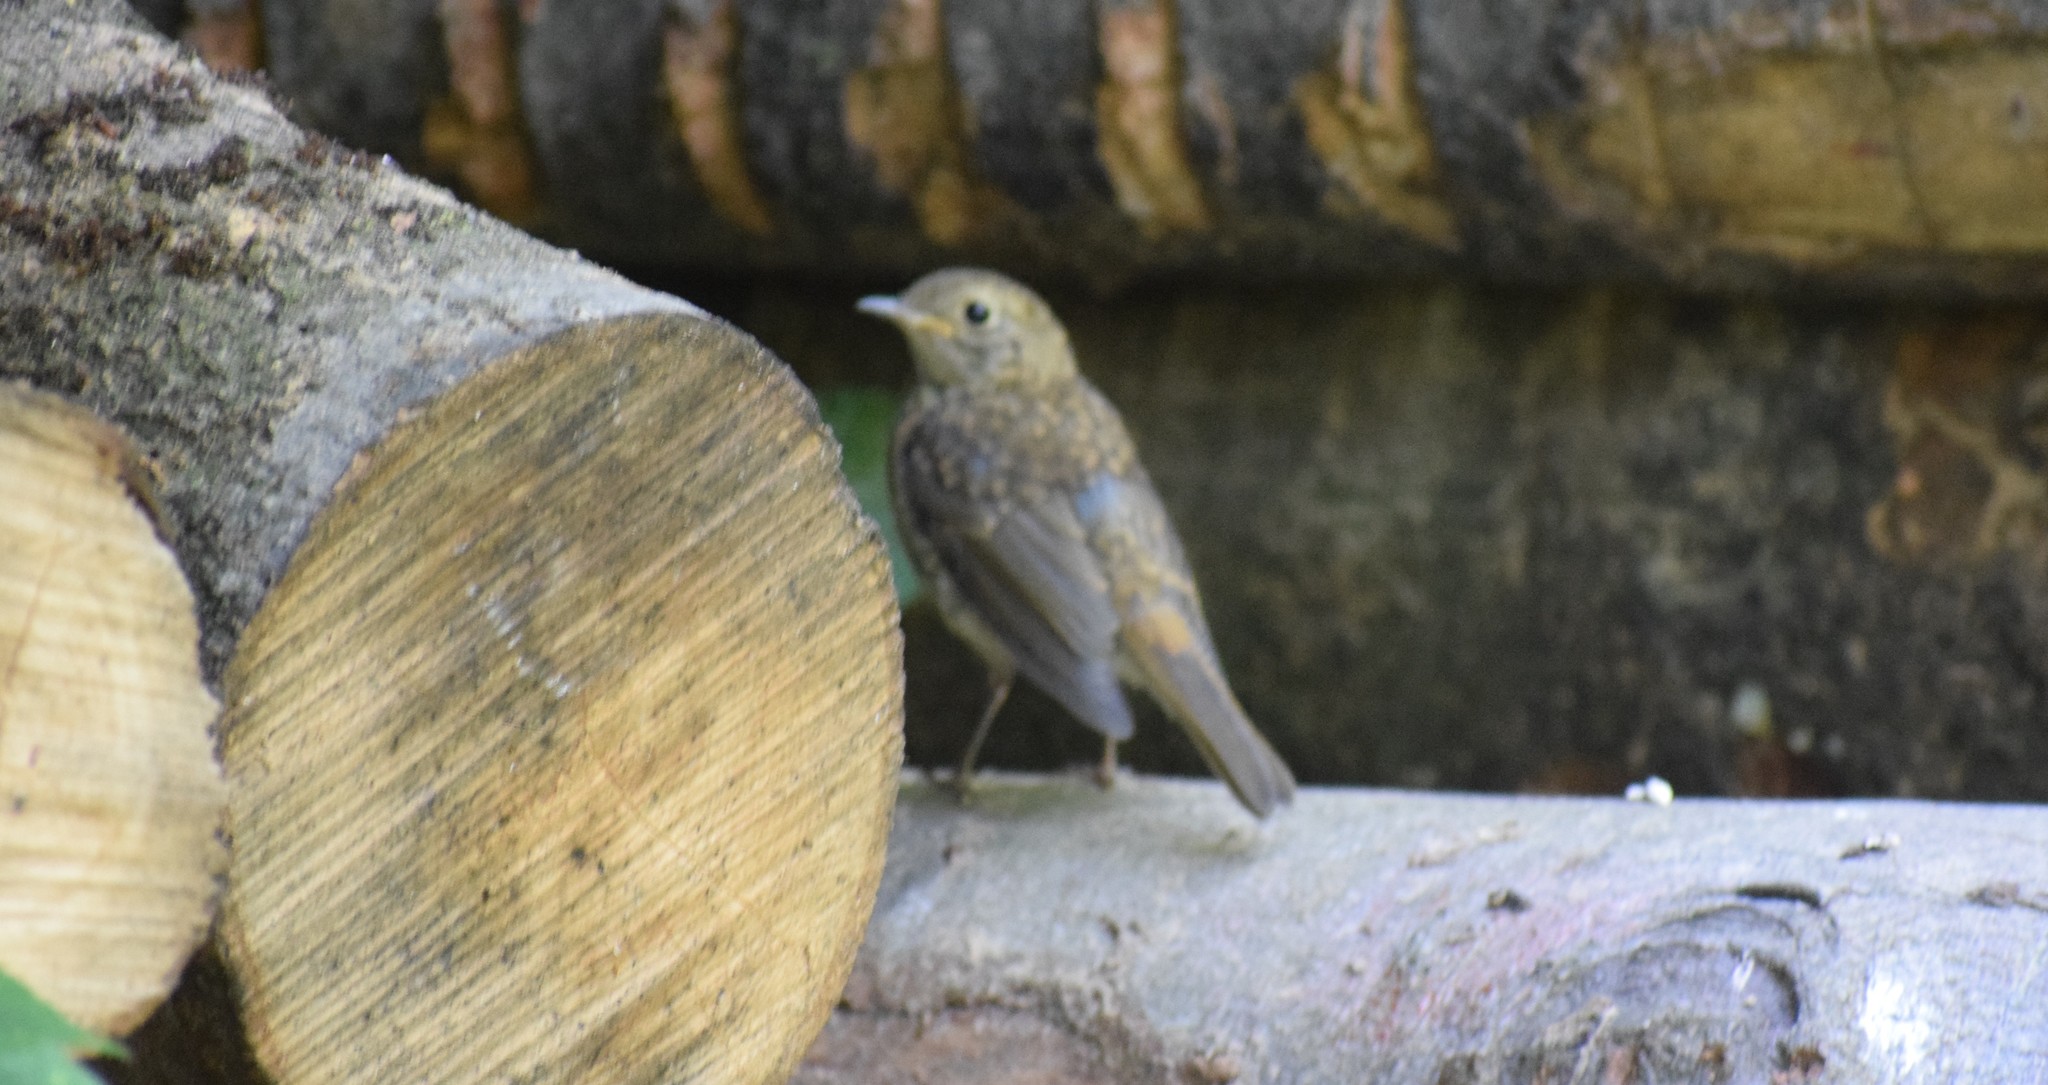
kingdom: Animalia
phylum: Chordata
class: Aves
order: Passeriformes
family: Muscicapidae
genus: Erithacus
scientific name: Erithacus rubecula
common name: European robin
